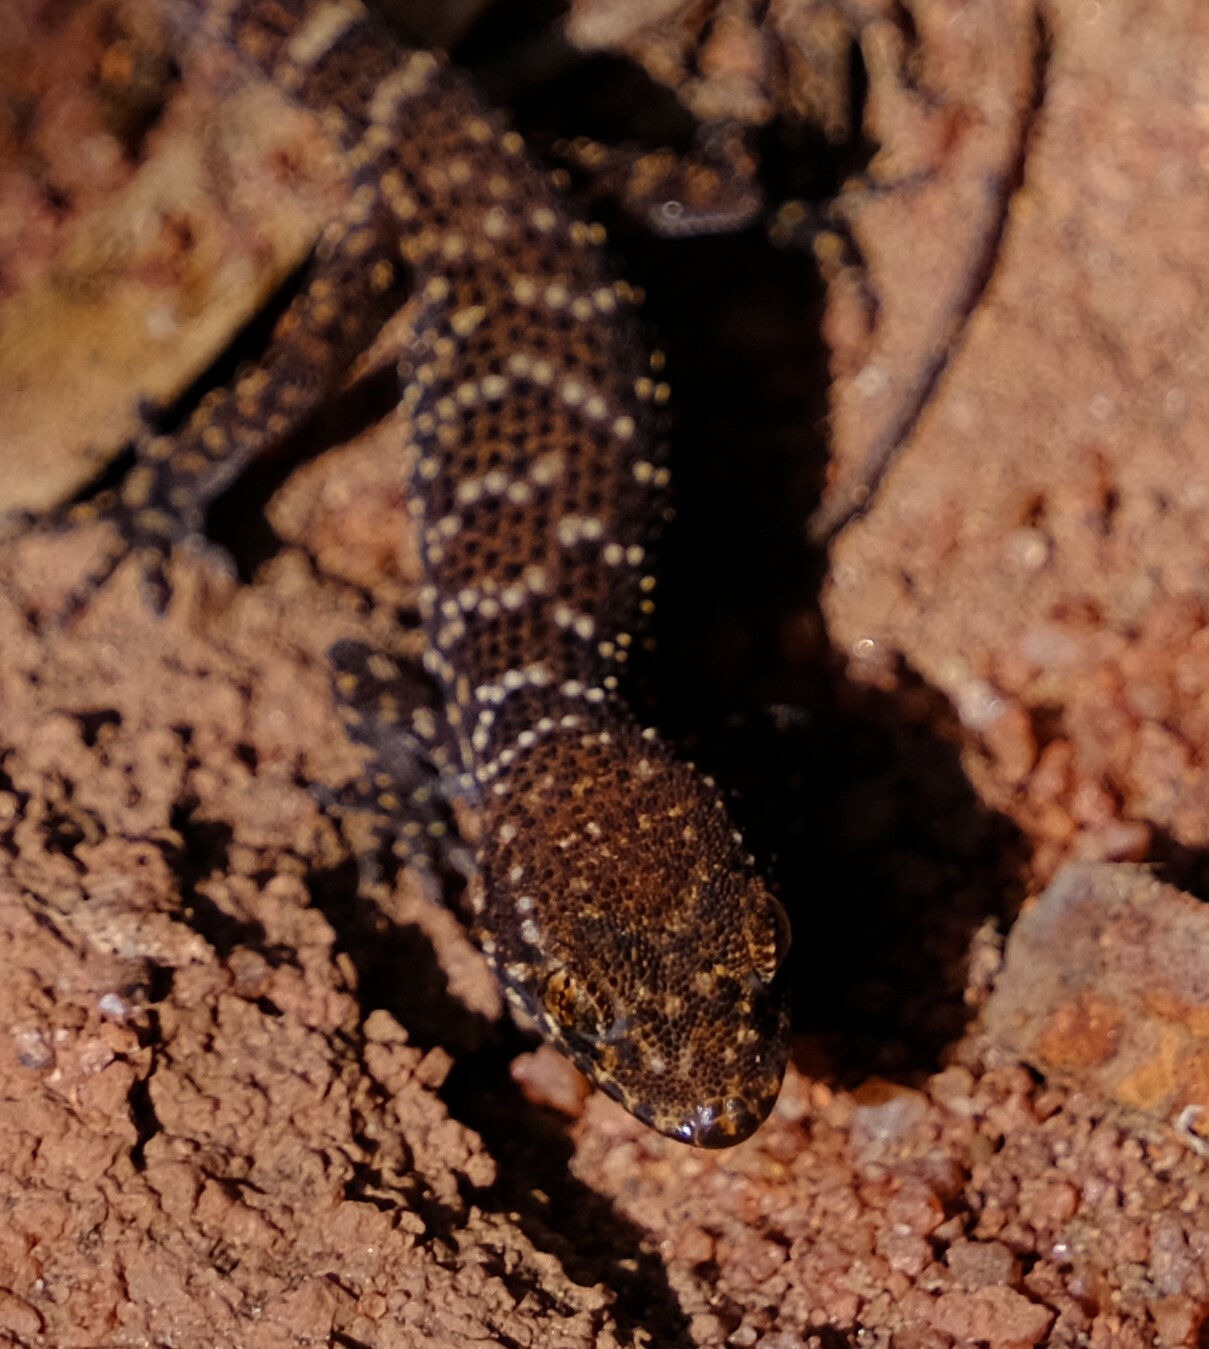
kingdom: Animalia
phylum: Chordata
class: Squamata
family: Gekkonidae
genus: Heteronotia
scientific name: Heteronotia binoei
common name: Bynoe's gecko
